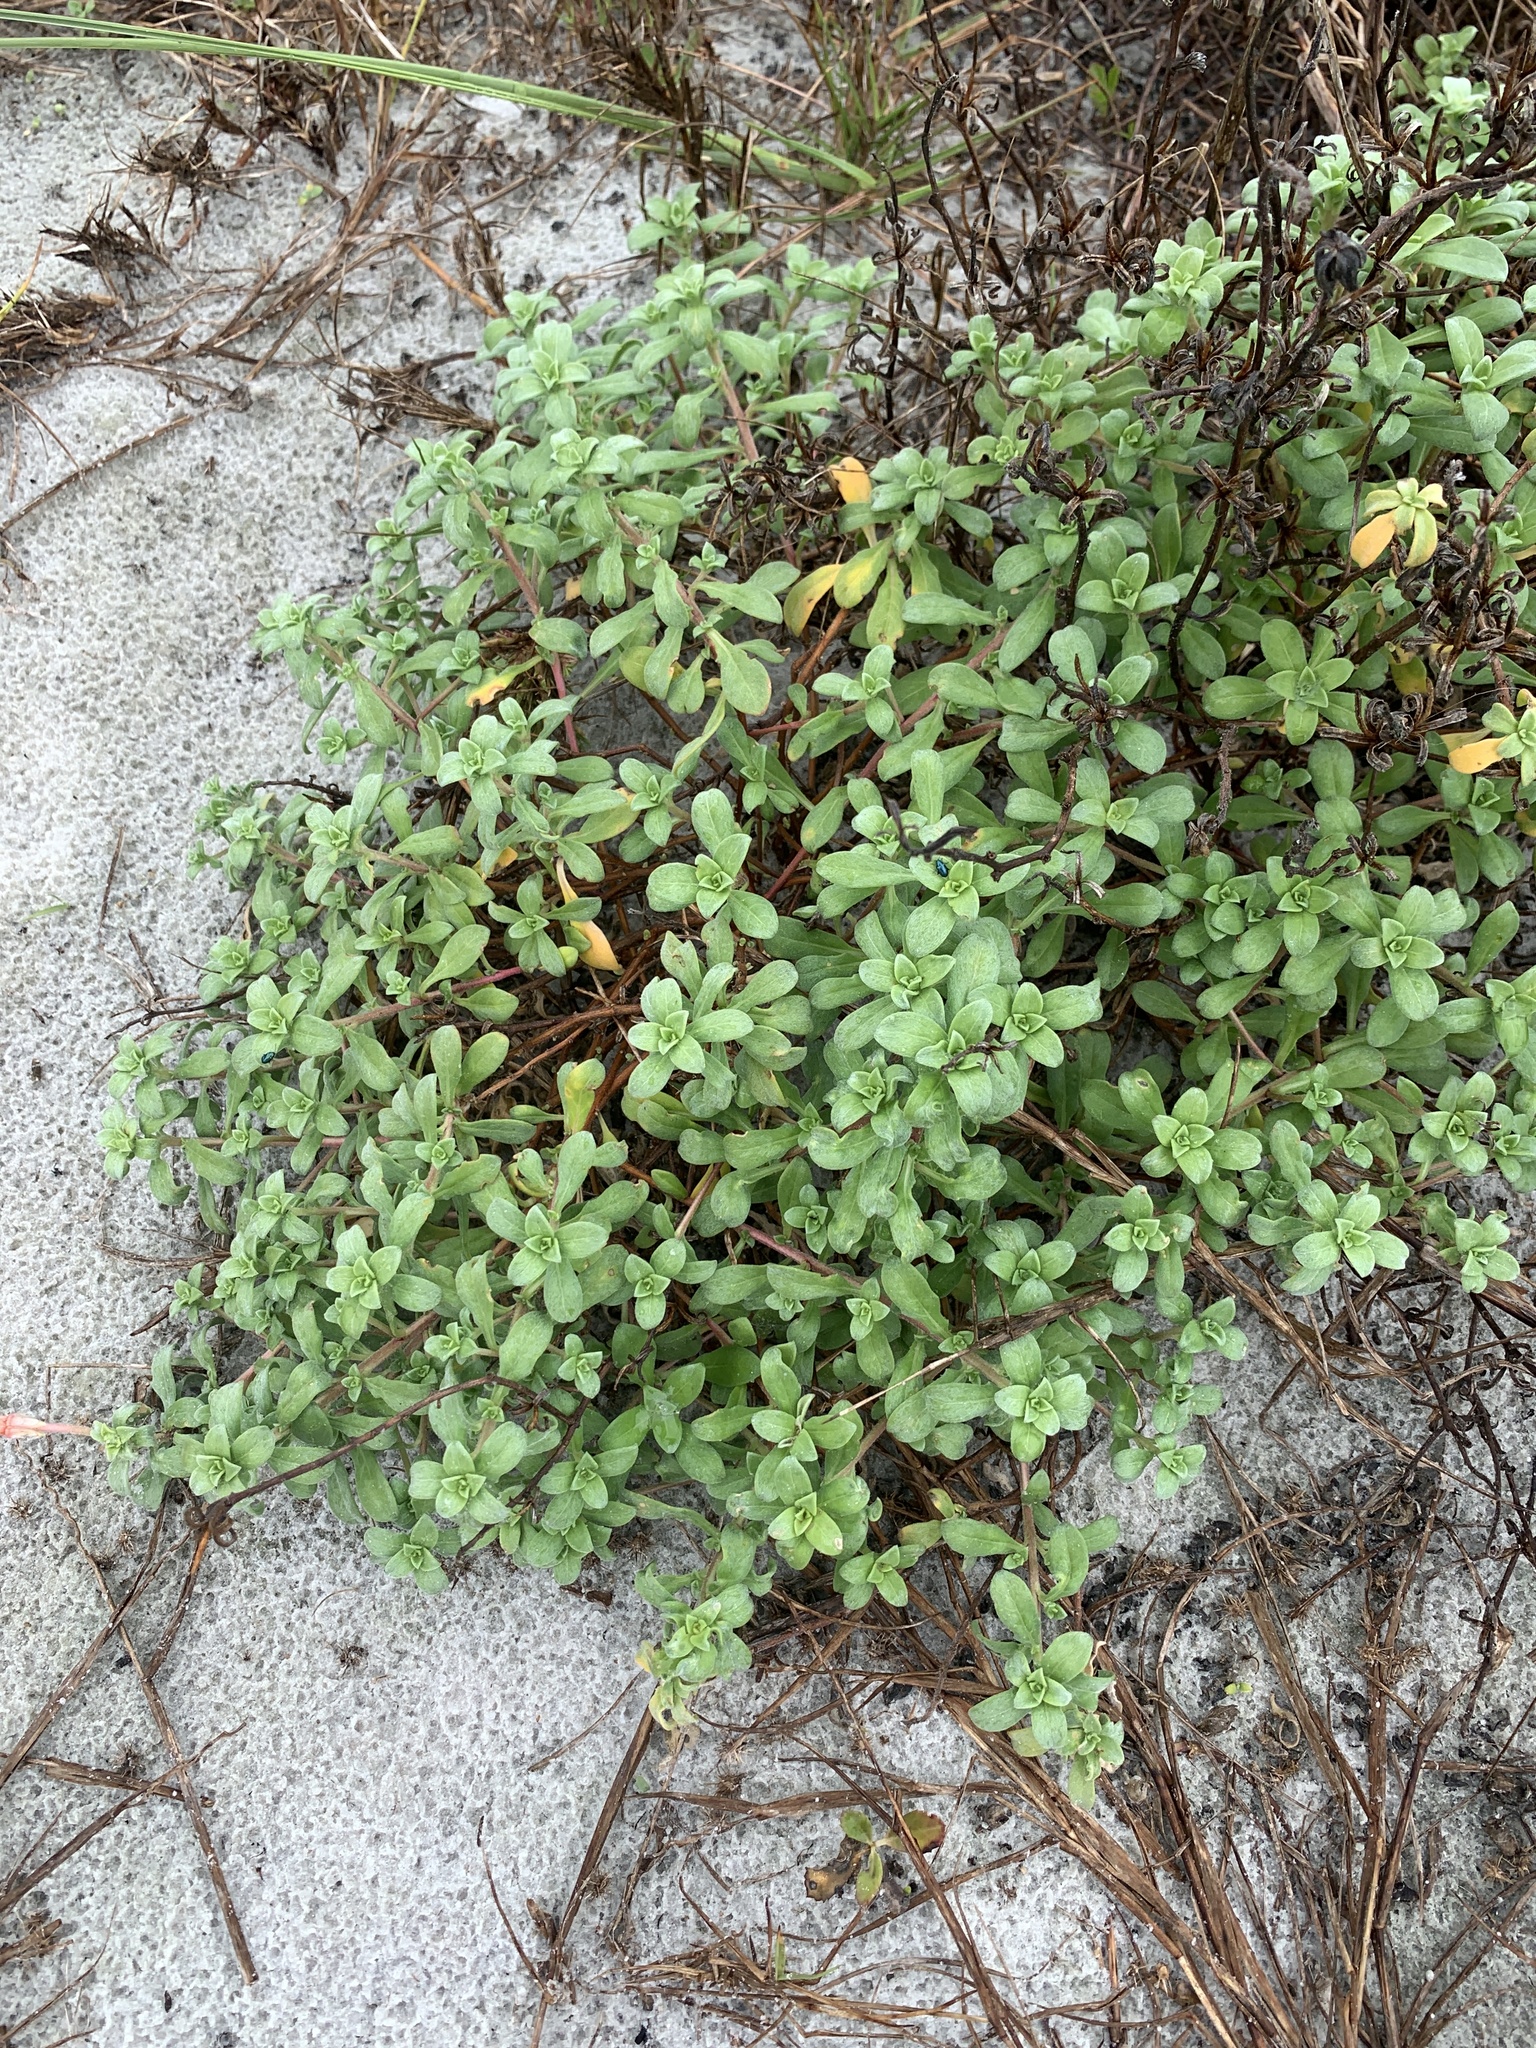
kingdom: Plantae
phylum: Tracheophyta
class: Magnoliopsida
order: Myrtales
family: Onagraceae
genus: Oenothera
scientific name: Oenothera drummondii
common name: Beach evening-primrose
